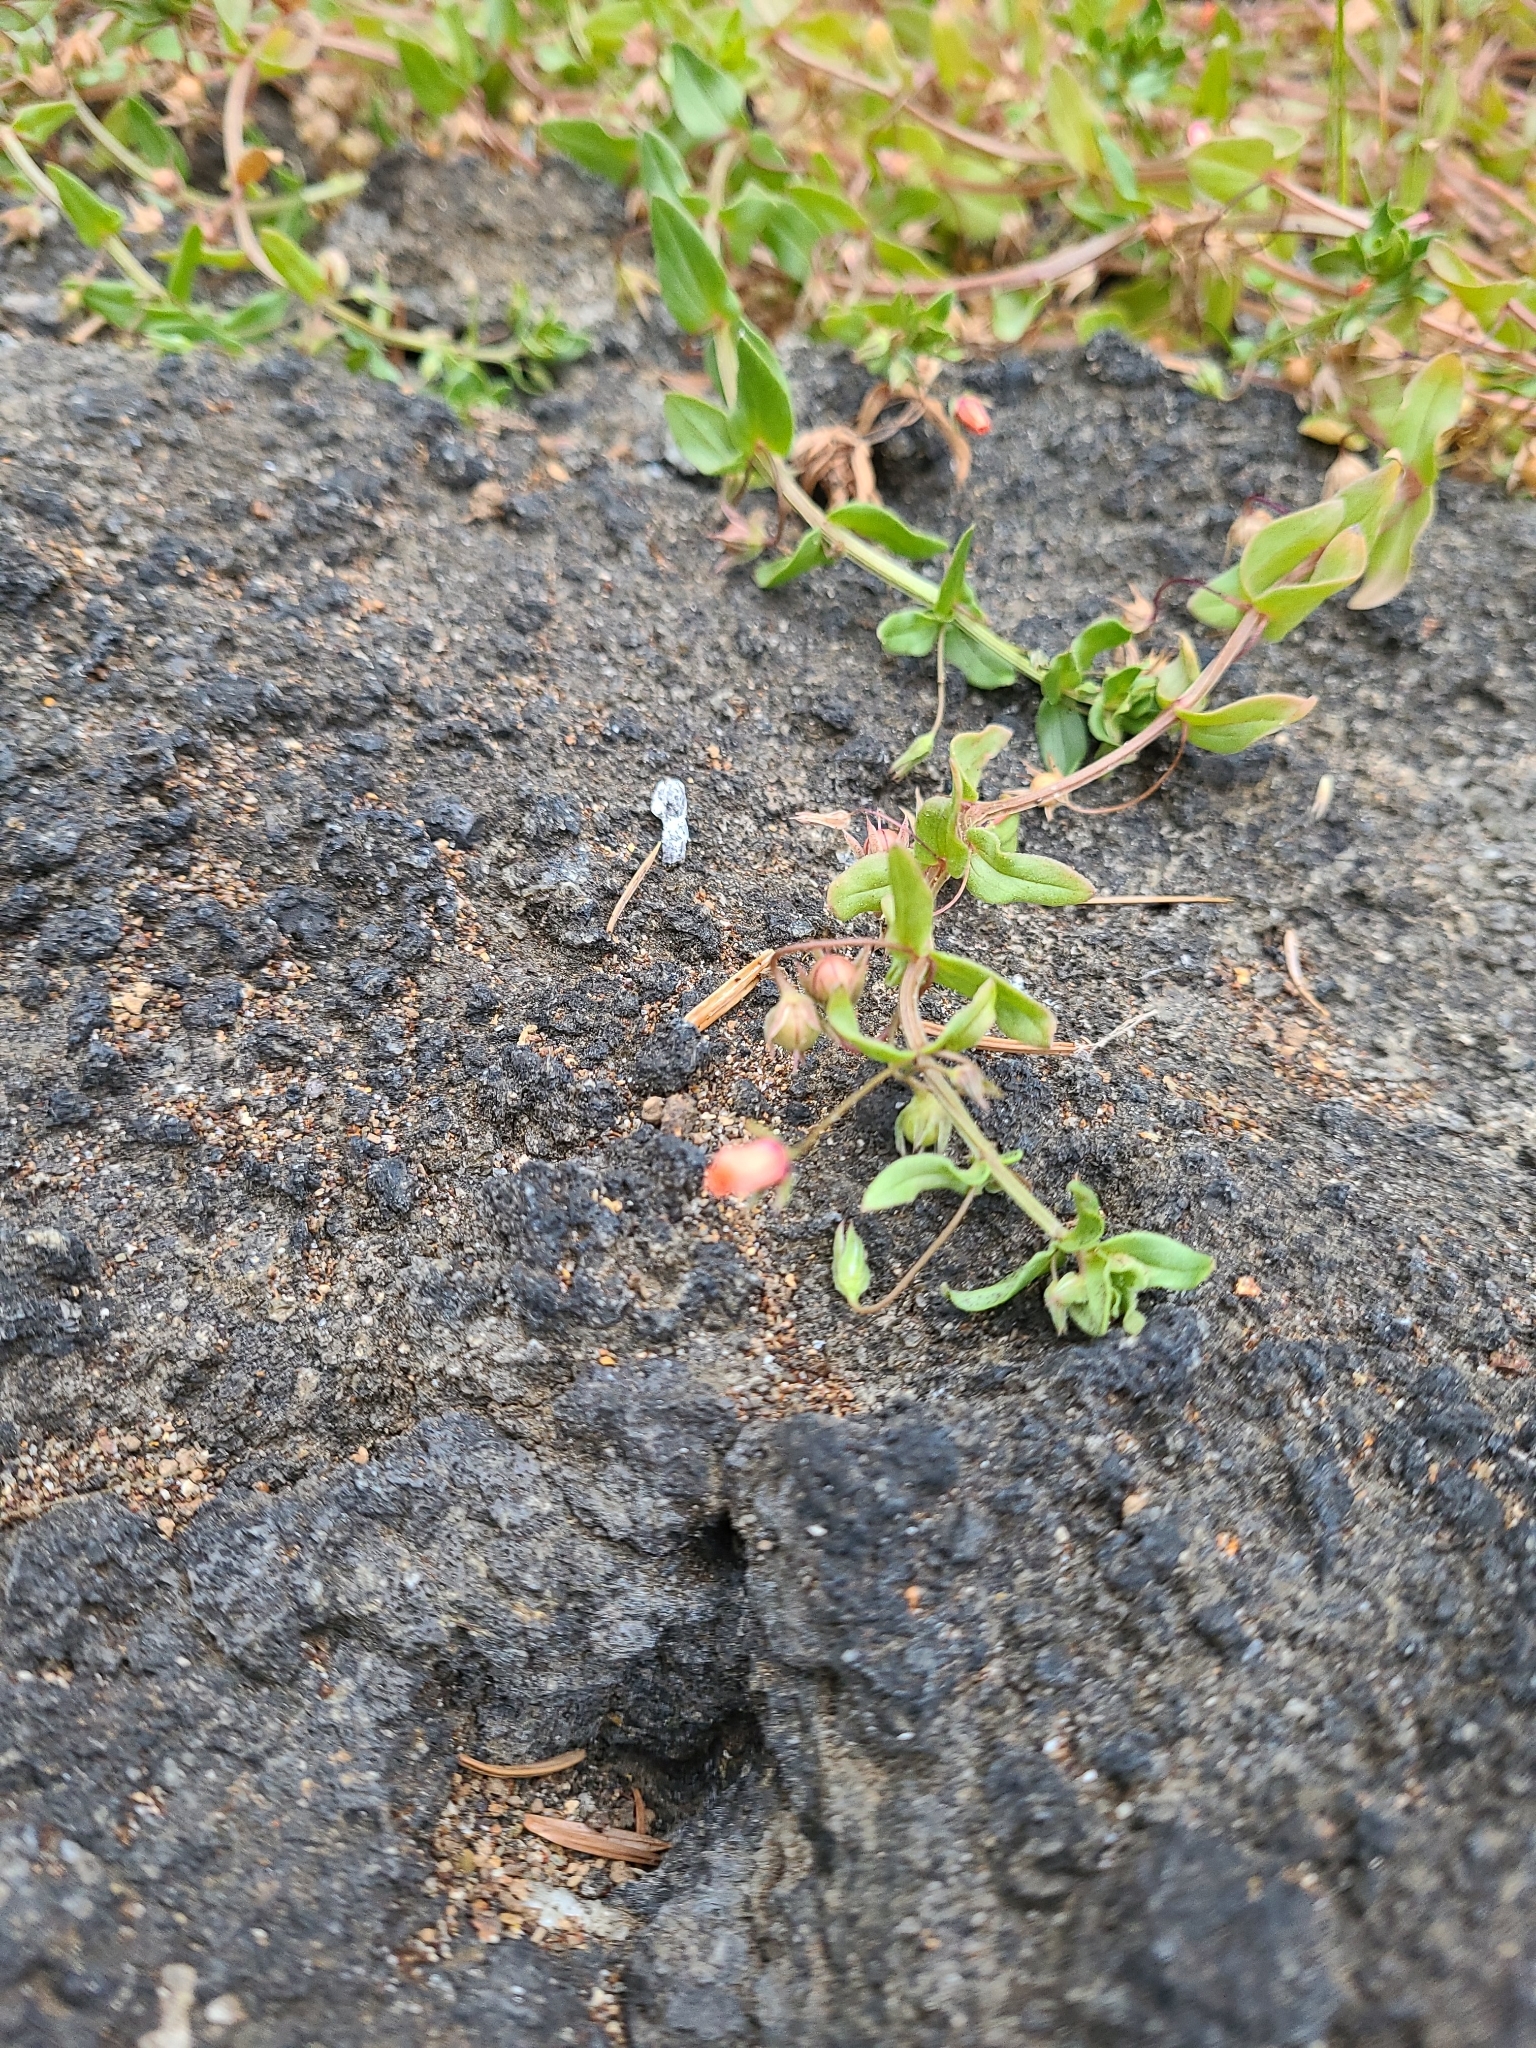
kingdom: Plantae
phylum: Tracheophyta
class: Magnoliopsida
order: Ericales
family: Primulaceae
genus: Lysimachia
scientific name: Lysimachia arvensis
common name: Scarlet pimpernel
